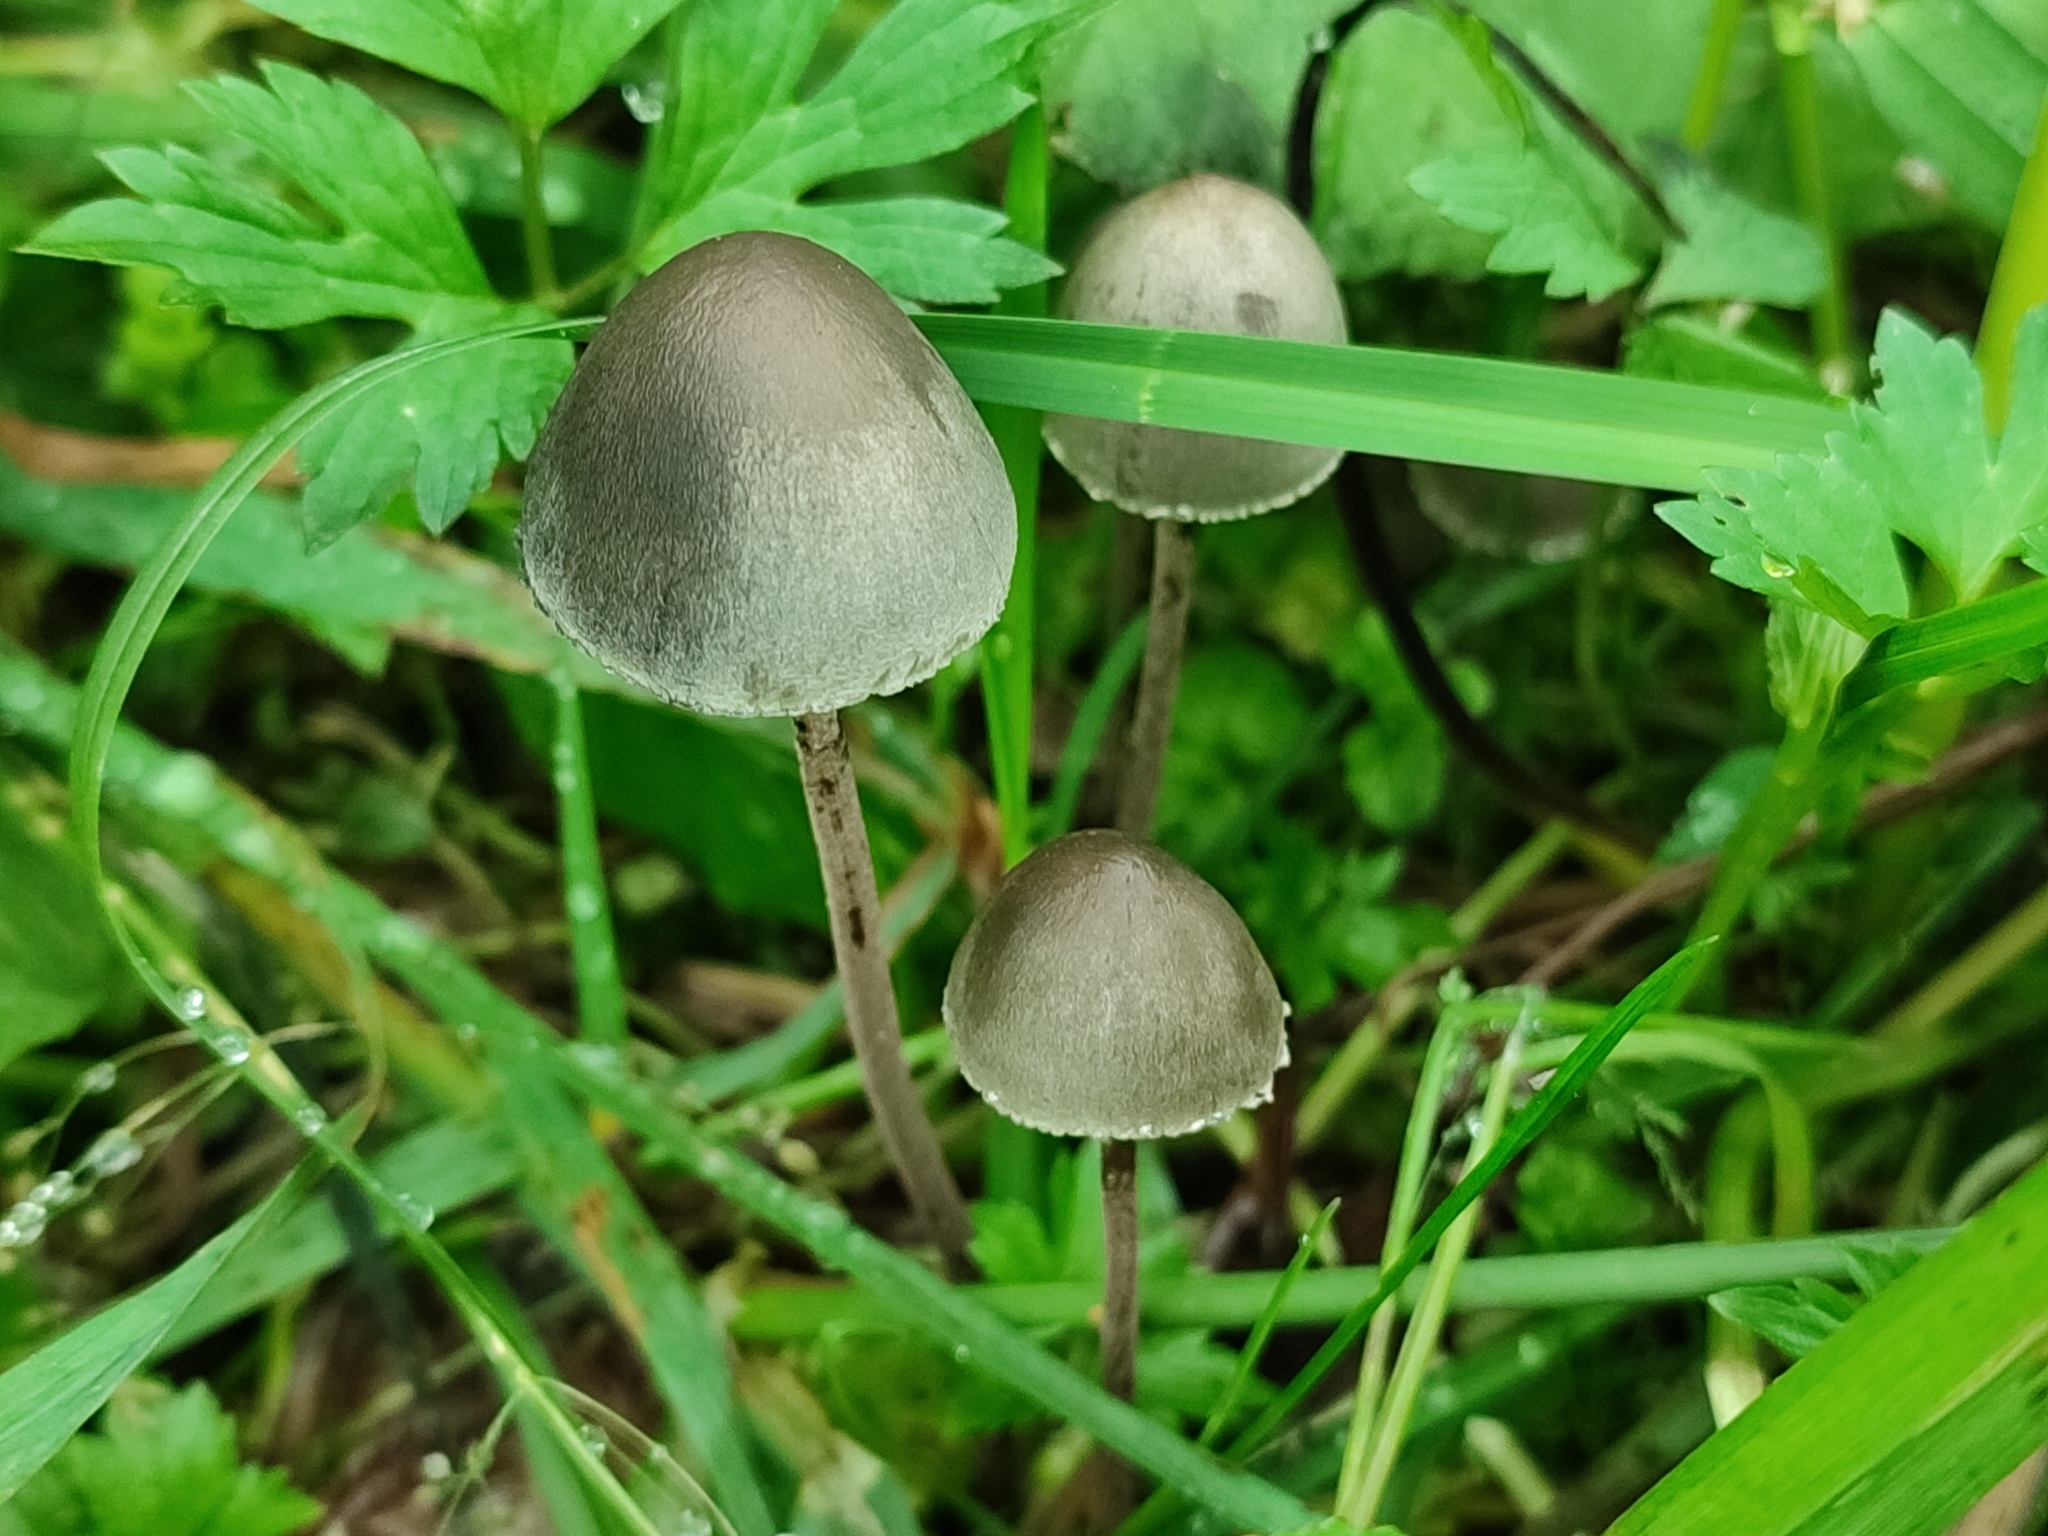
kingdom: Fungi
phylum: Basidiomycota
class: Agaricomycetes
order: Agaricales
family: Bolbitiaceae
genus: Panaeolus
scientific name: Panaeolus papilionaceus
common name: Petticoat mottlegill
